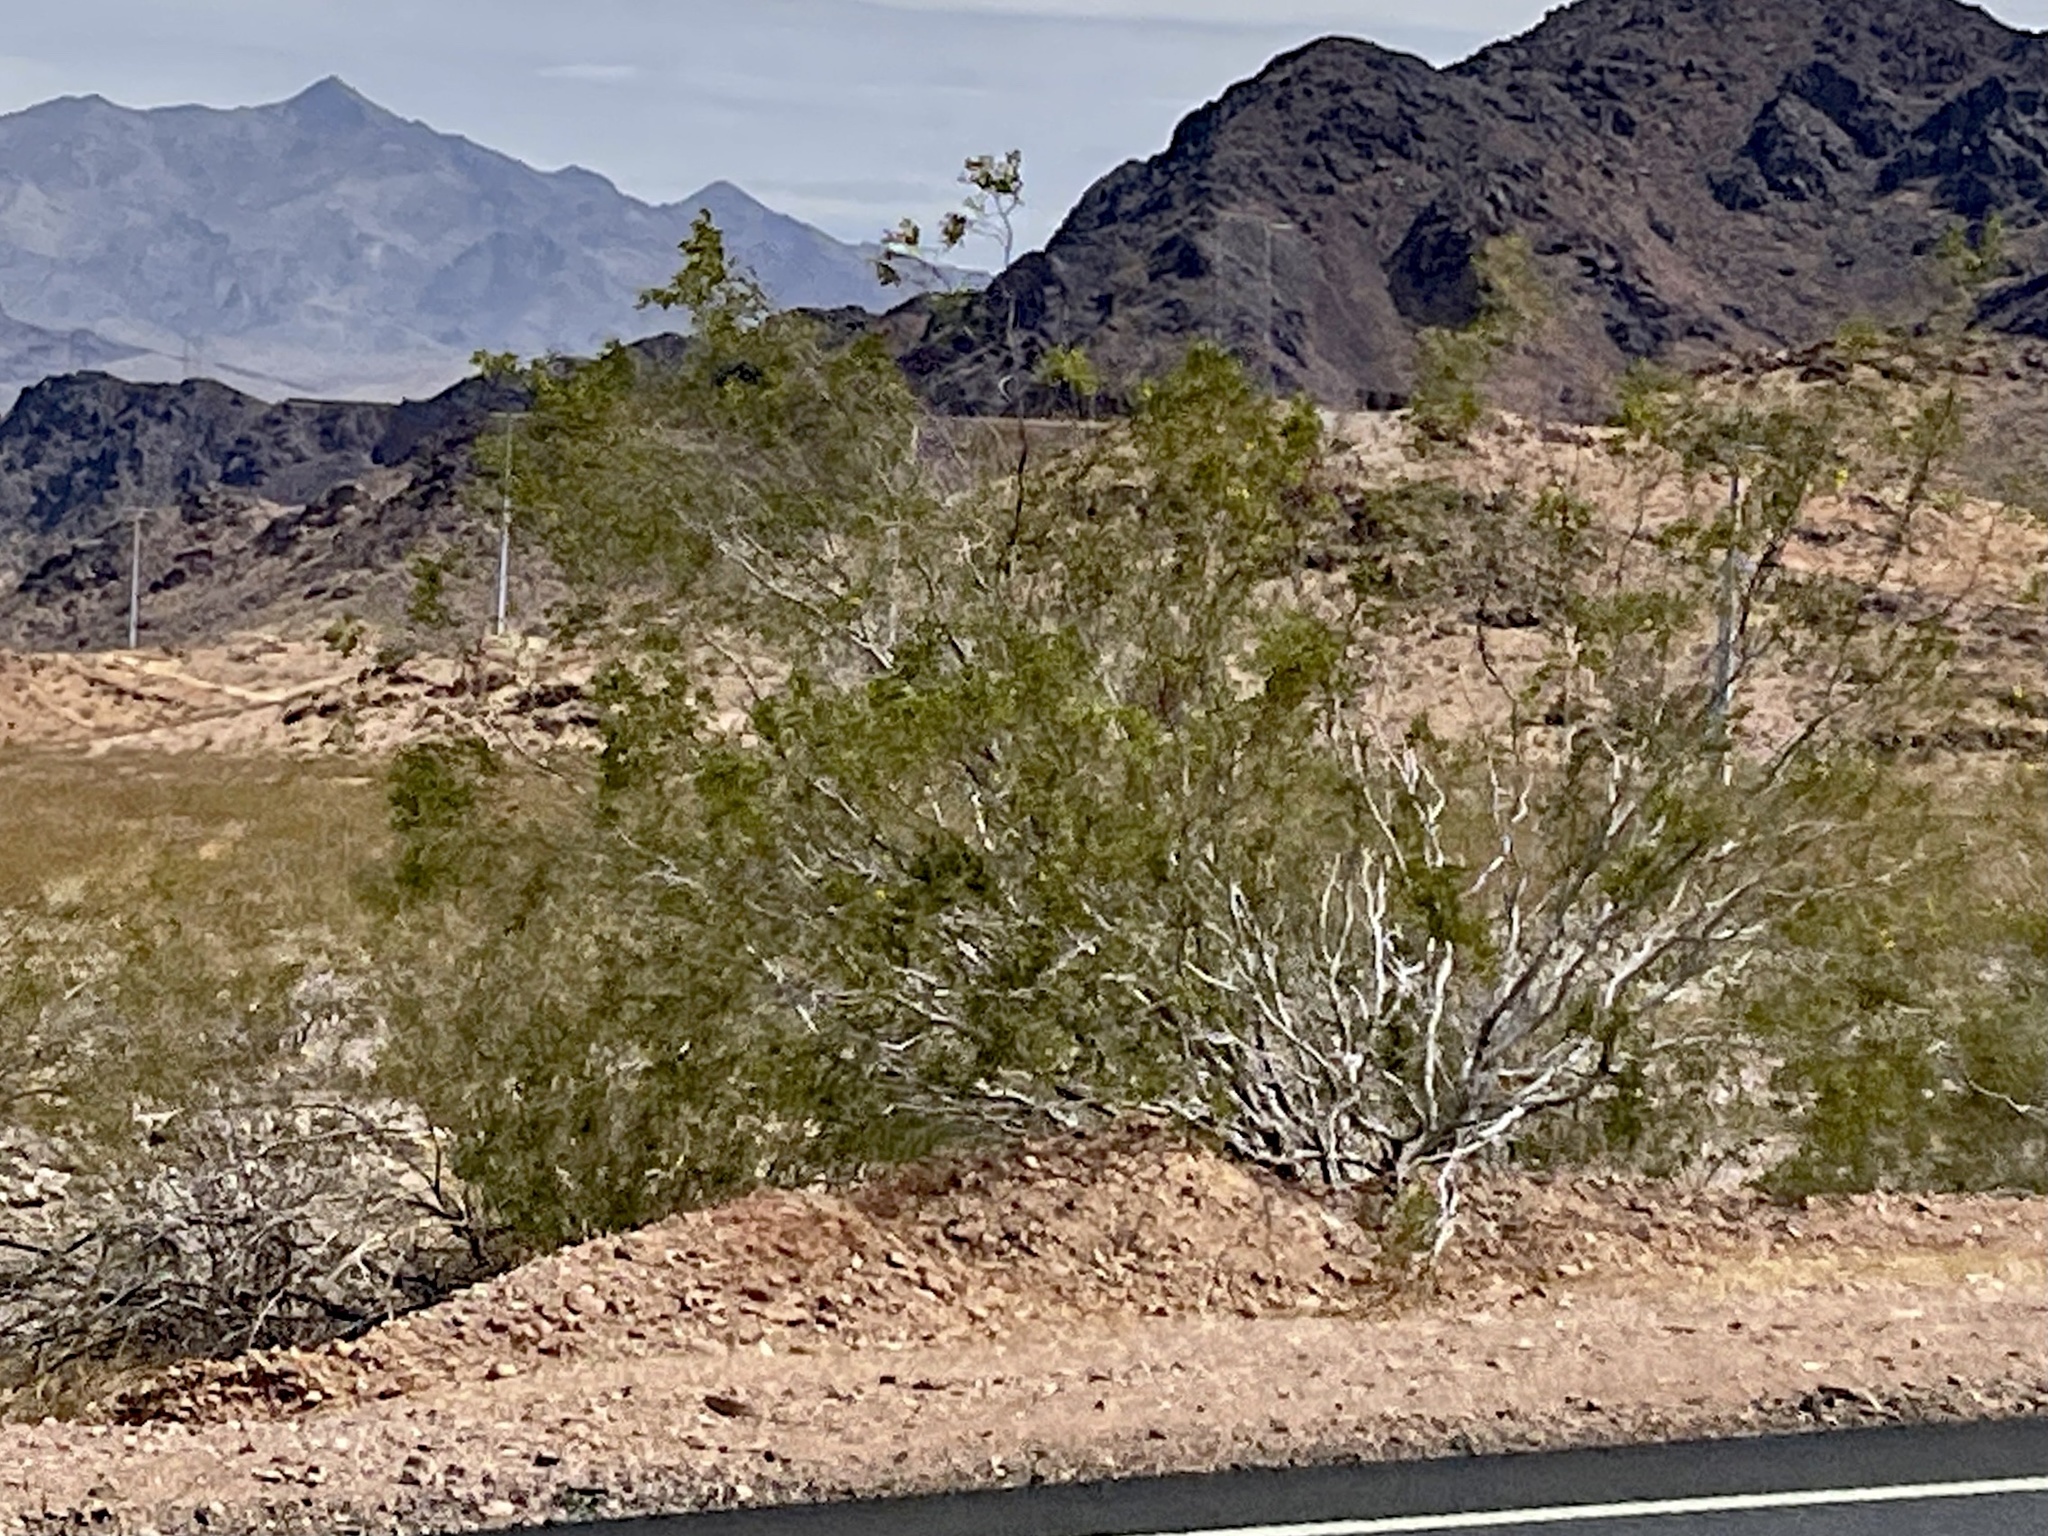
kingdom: Plantae
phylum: Tracheophyta
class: Magnoliopsida
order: Zygophyllales
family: Zygophyllaceae
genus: Larrea
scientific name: Larrea tridentata
